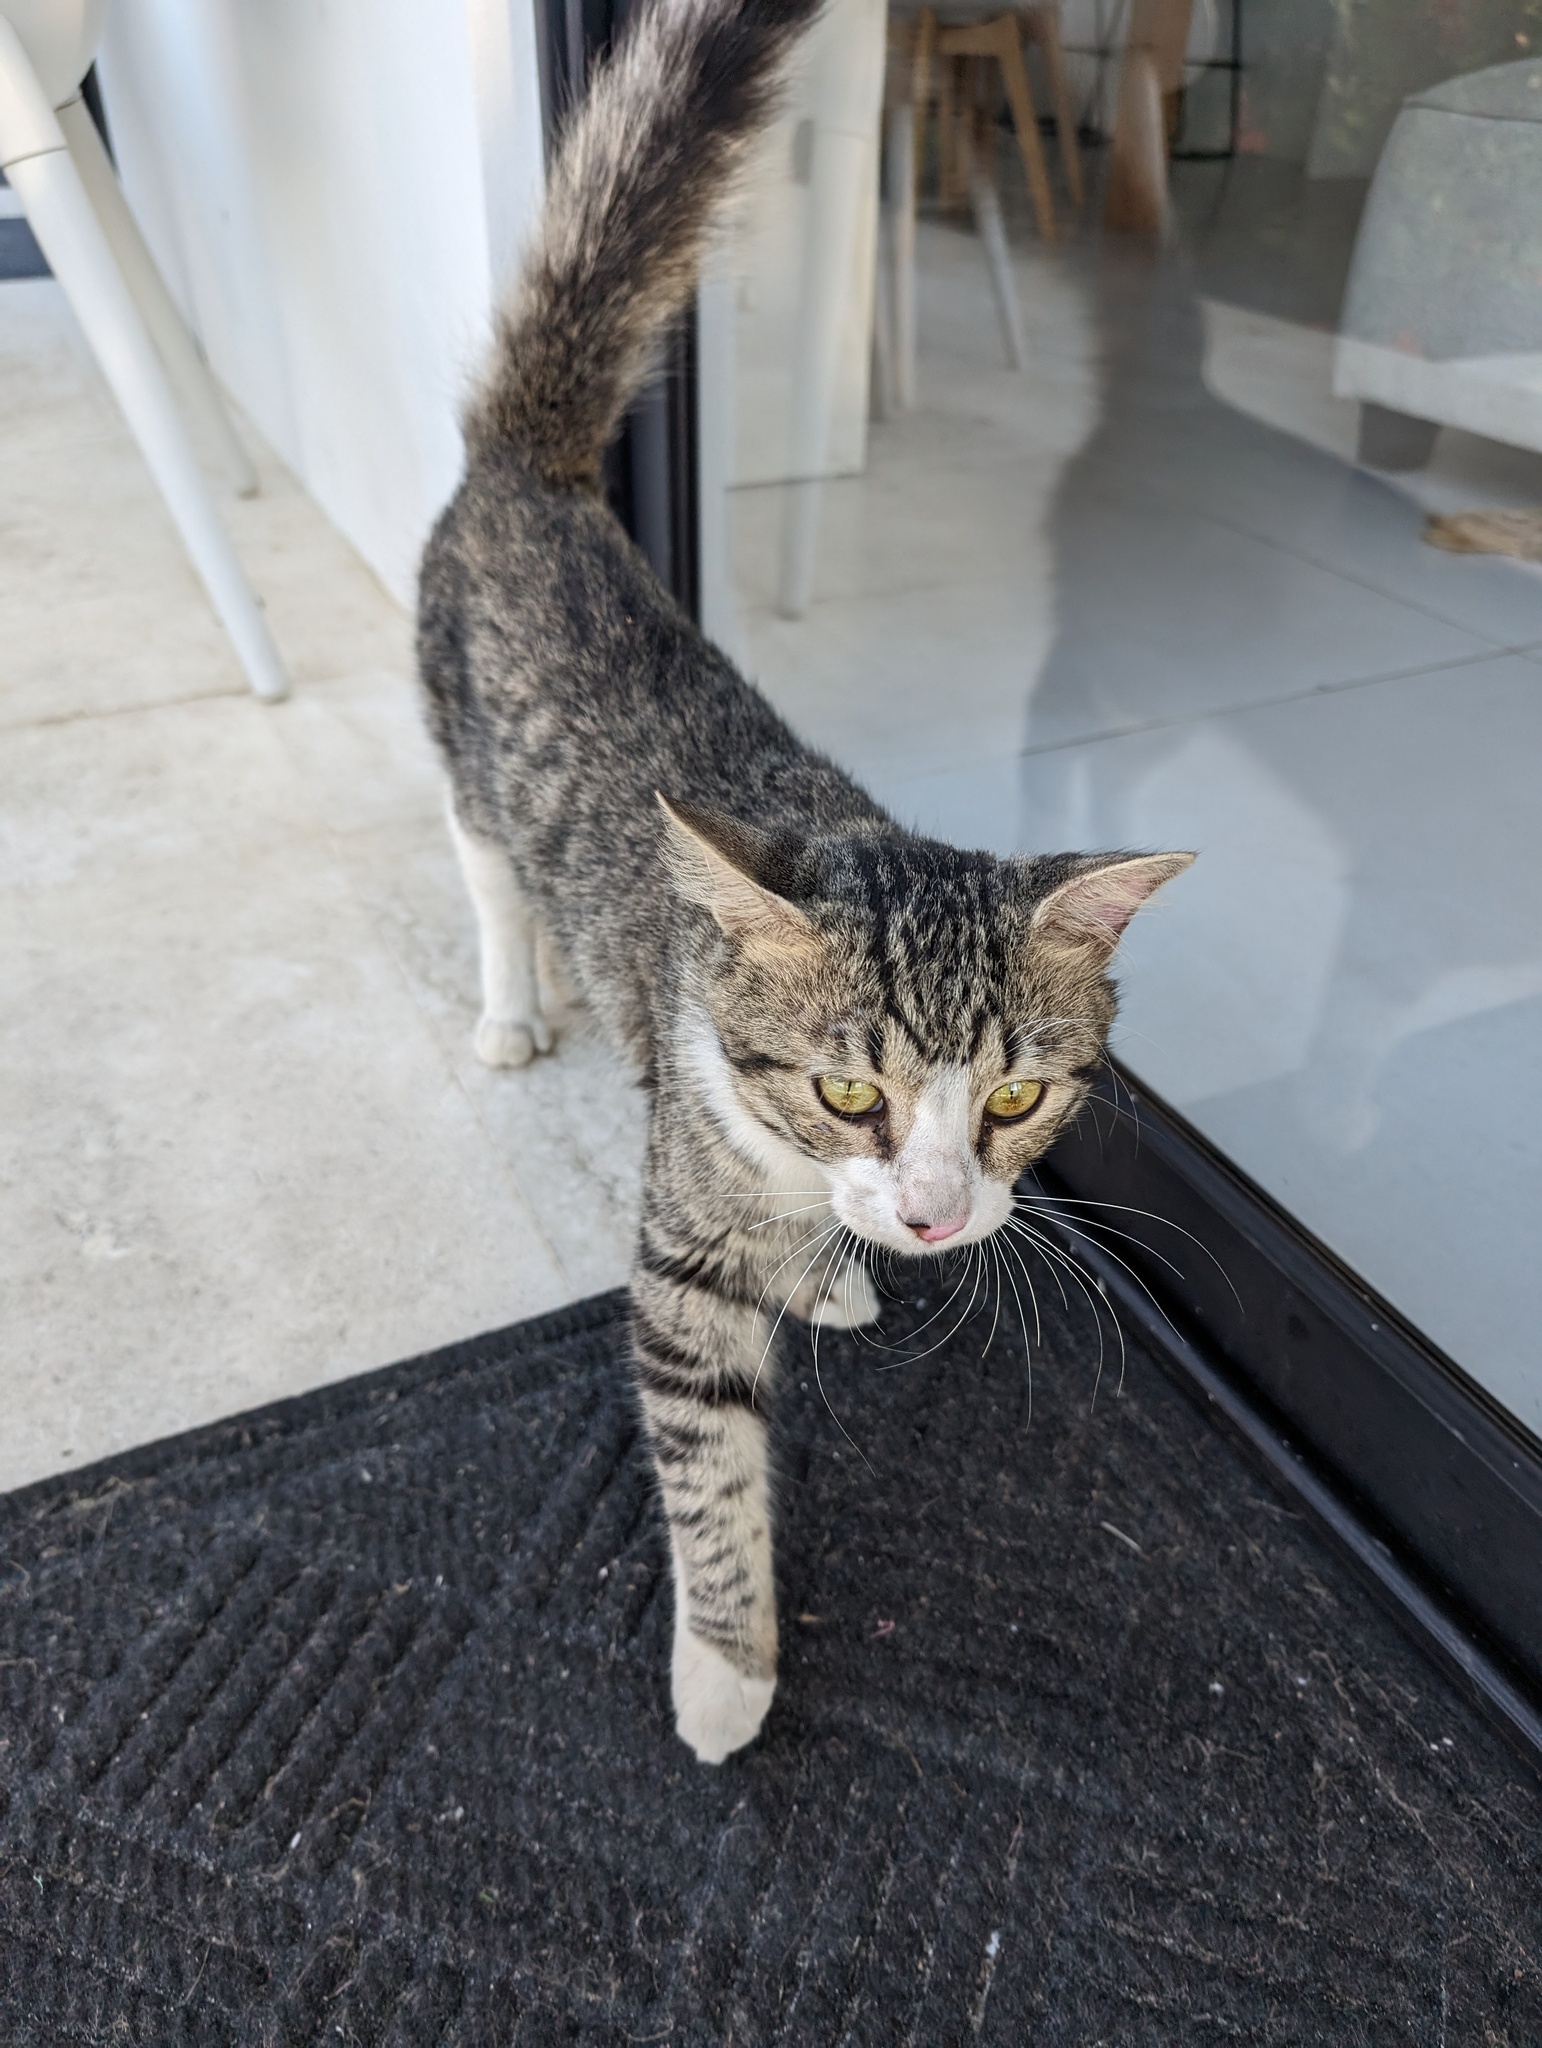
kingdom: Animalia
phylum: Chordata
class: Mammalia
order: Carnivora
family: Felidae
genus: Felis
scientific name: Felis catus
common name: Domestic cat
